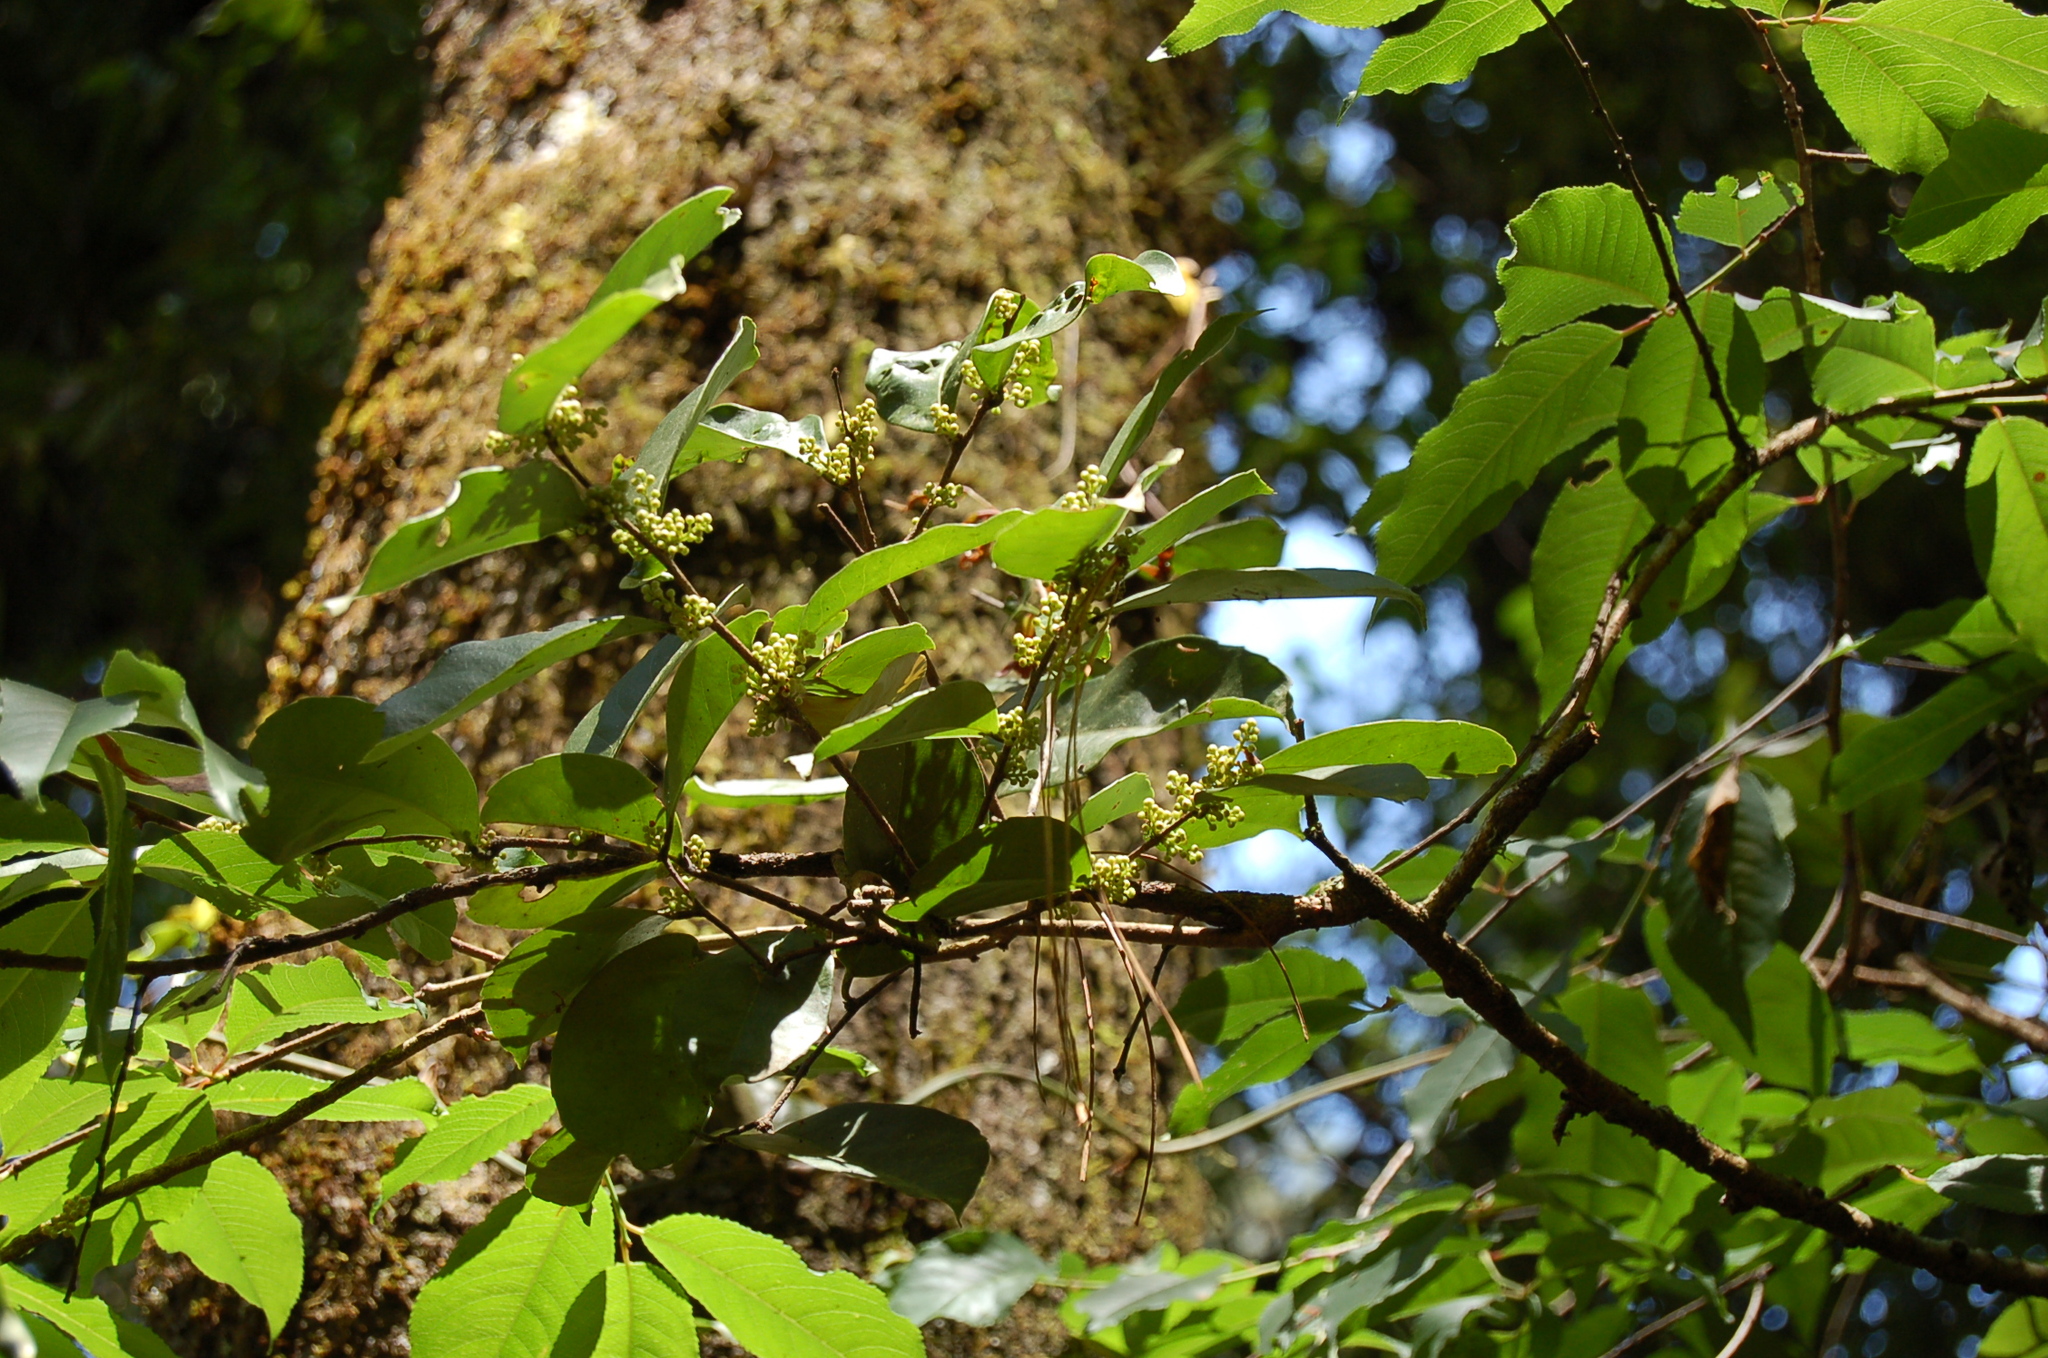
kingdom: Plantae
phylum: Tracheophyta
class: Magnoliopsida
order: Celastrales
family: Celastraceae
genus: Celastrus
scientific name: Celastrus vulcanicola
